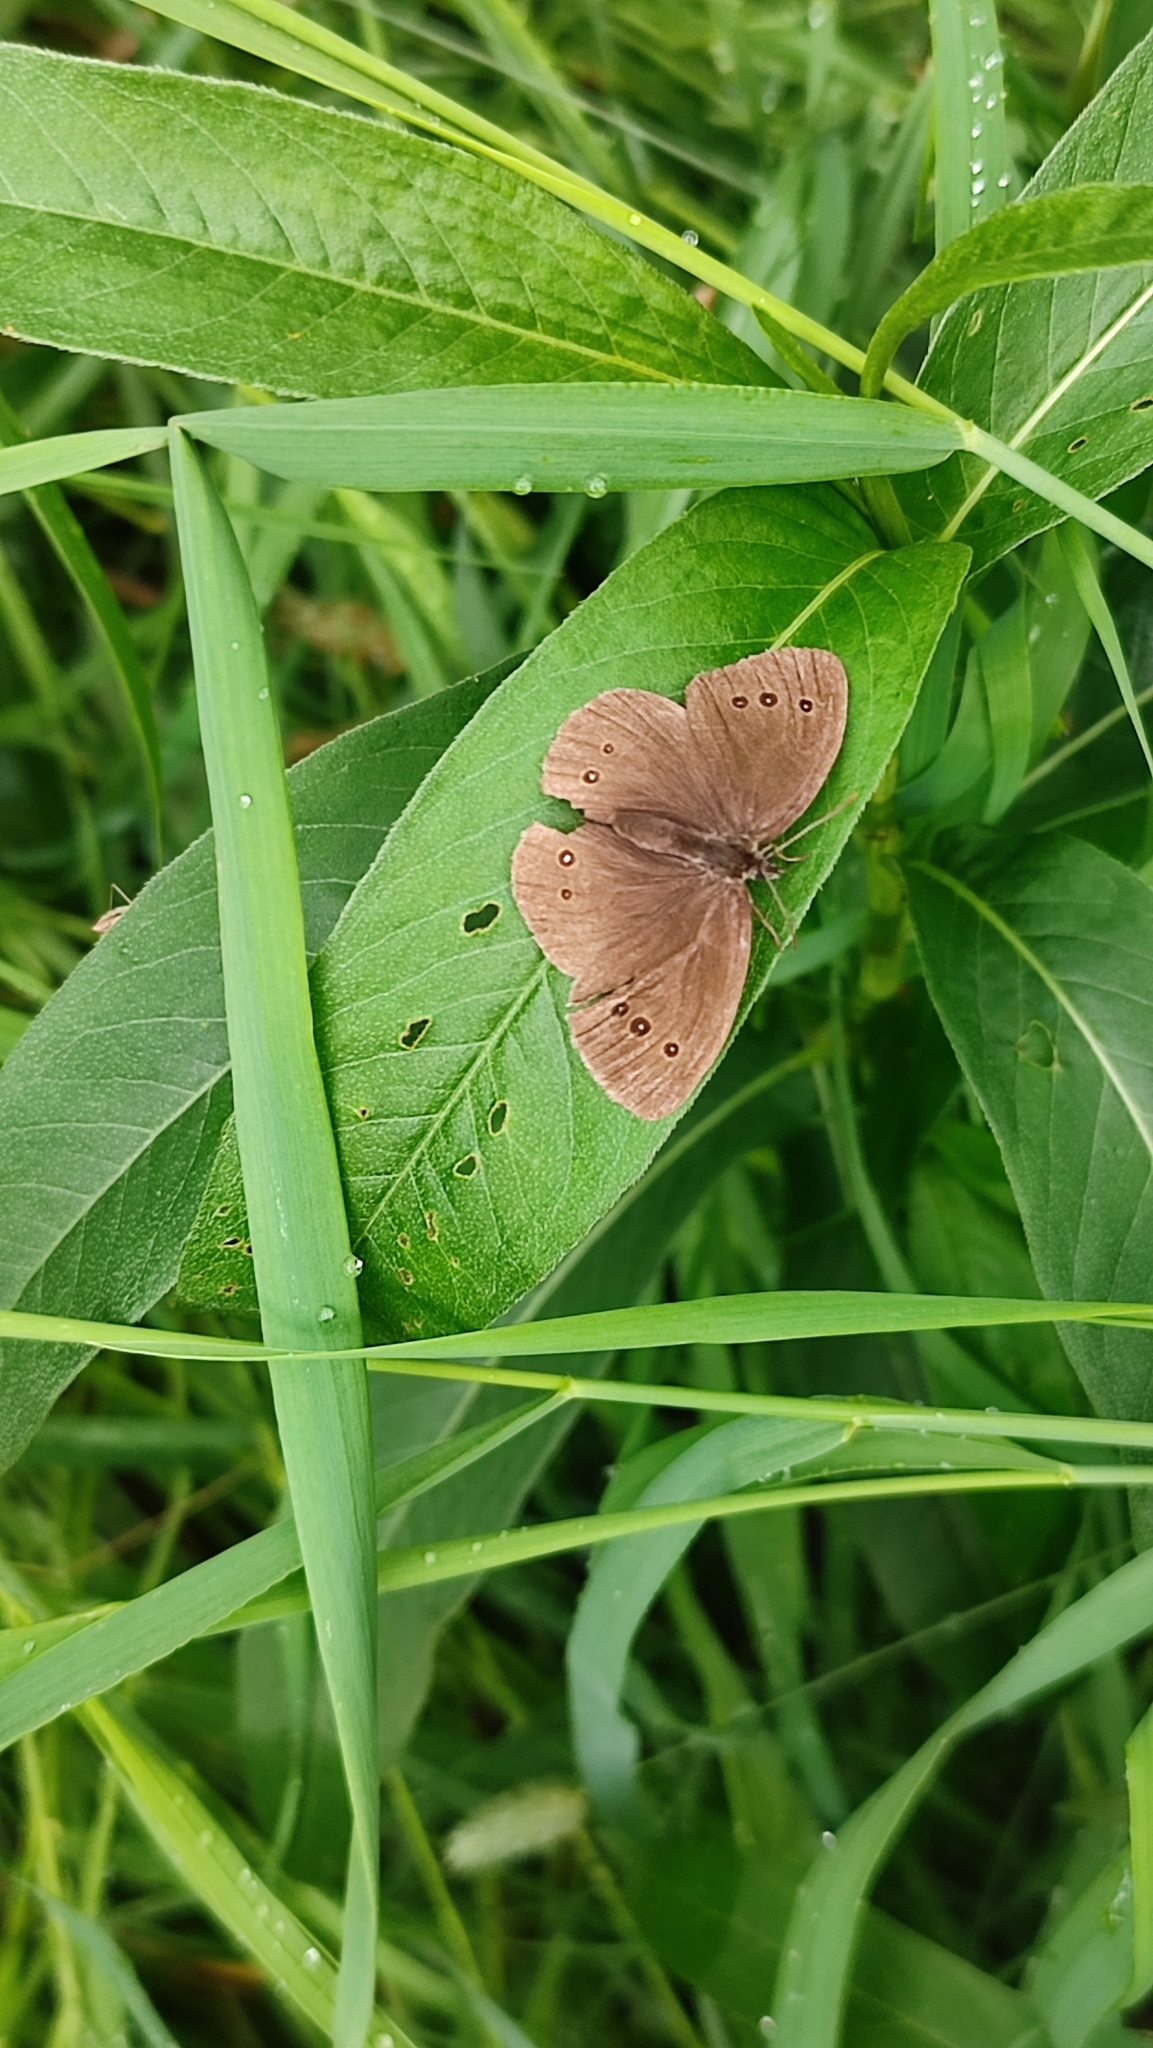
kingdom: Animalia
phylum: Arthropoda
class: Insecta
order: Lepidoptera
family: Nymphalidae
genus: Aphantopus
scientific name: Aphantopus hyperantus
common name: Ringlet
